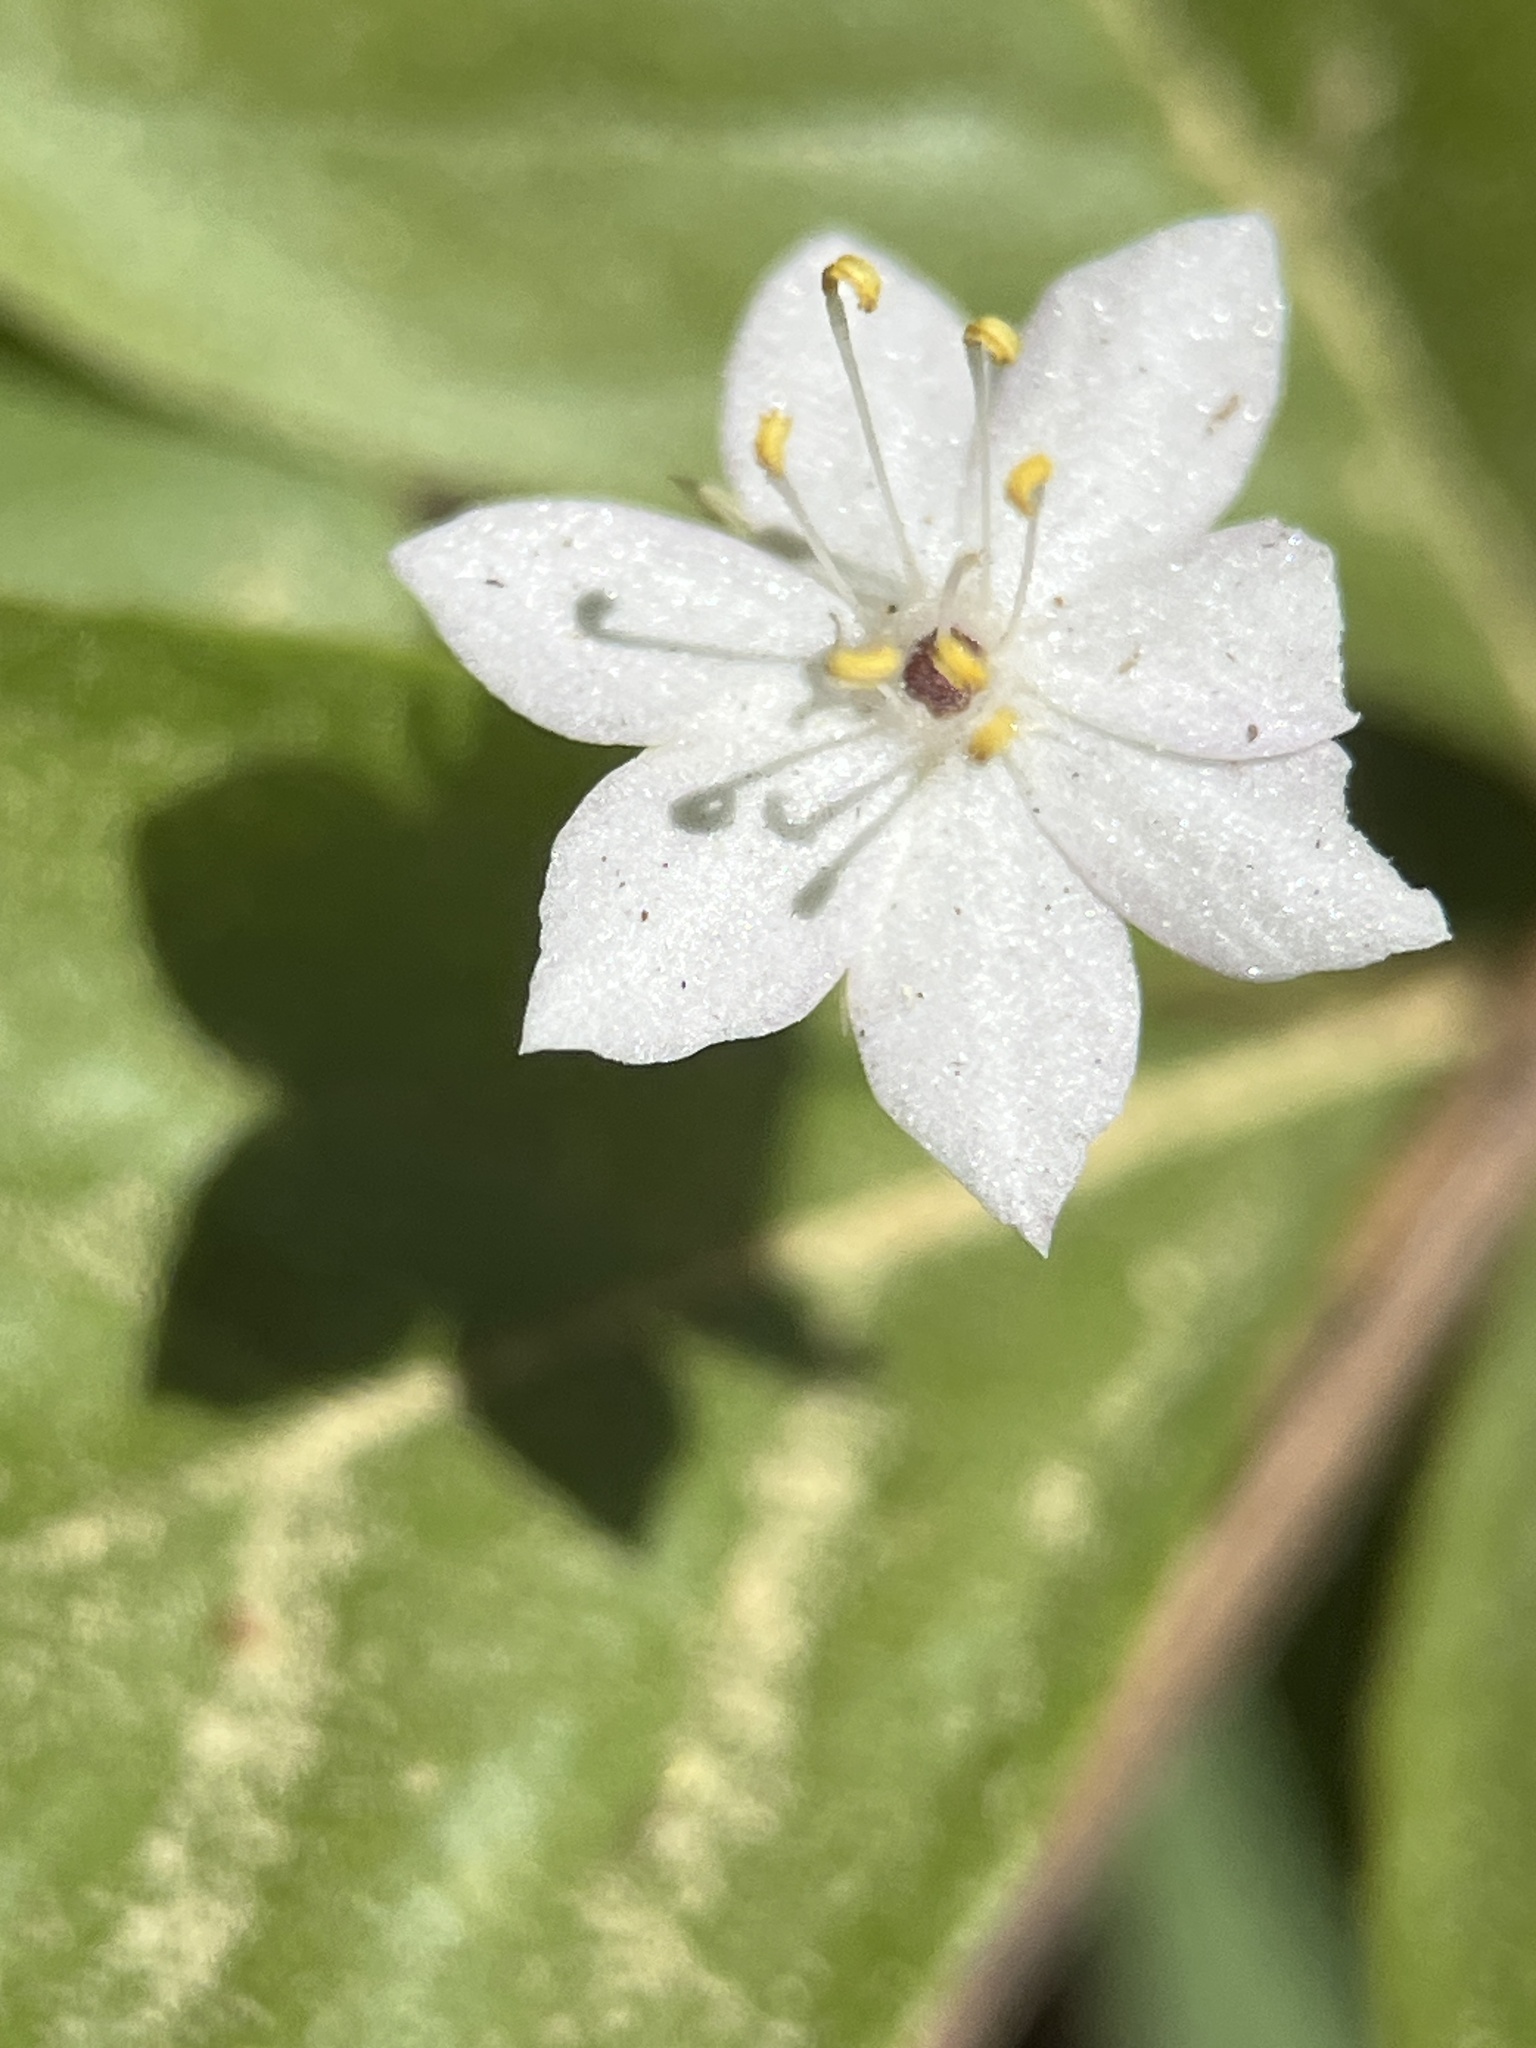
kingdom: Plantae
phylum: Tracheophyta
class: Magnoliopsida
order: Ericales
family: Primulaceae
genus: Lysimachia
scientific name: Lysimachia latifolia
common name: Pacific starflower
